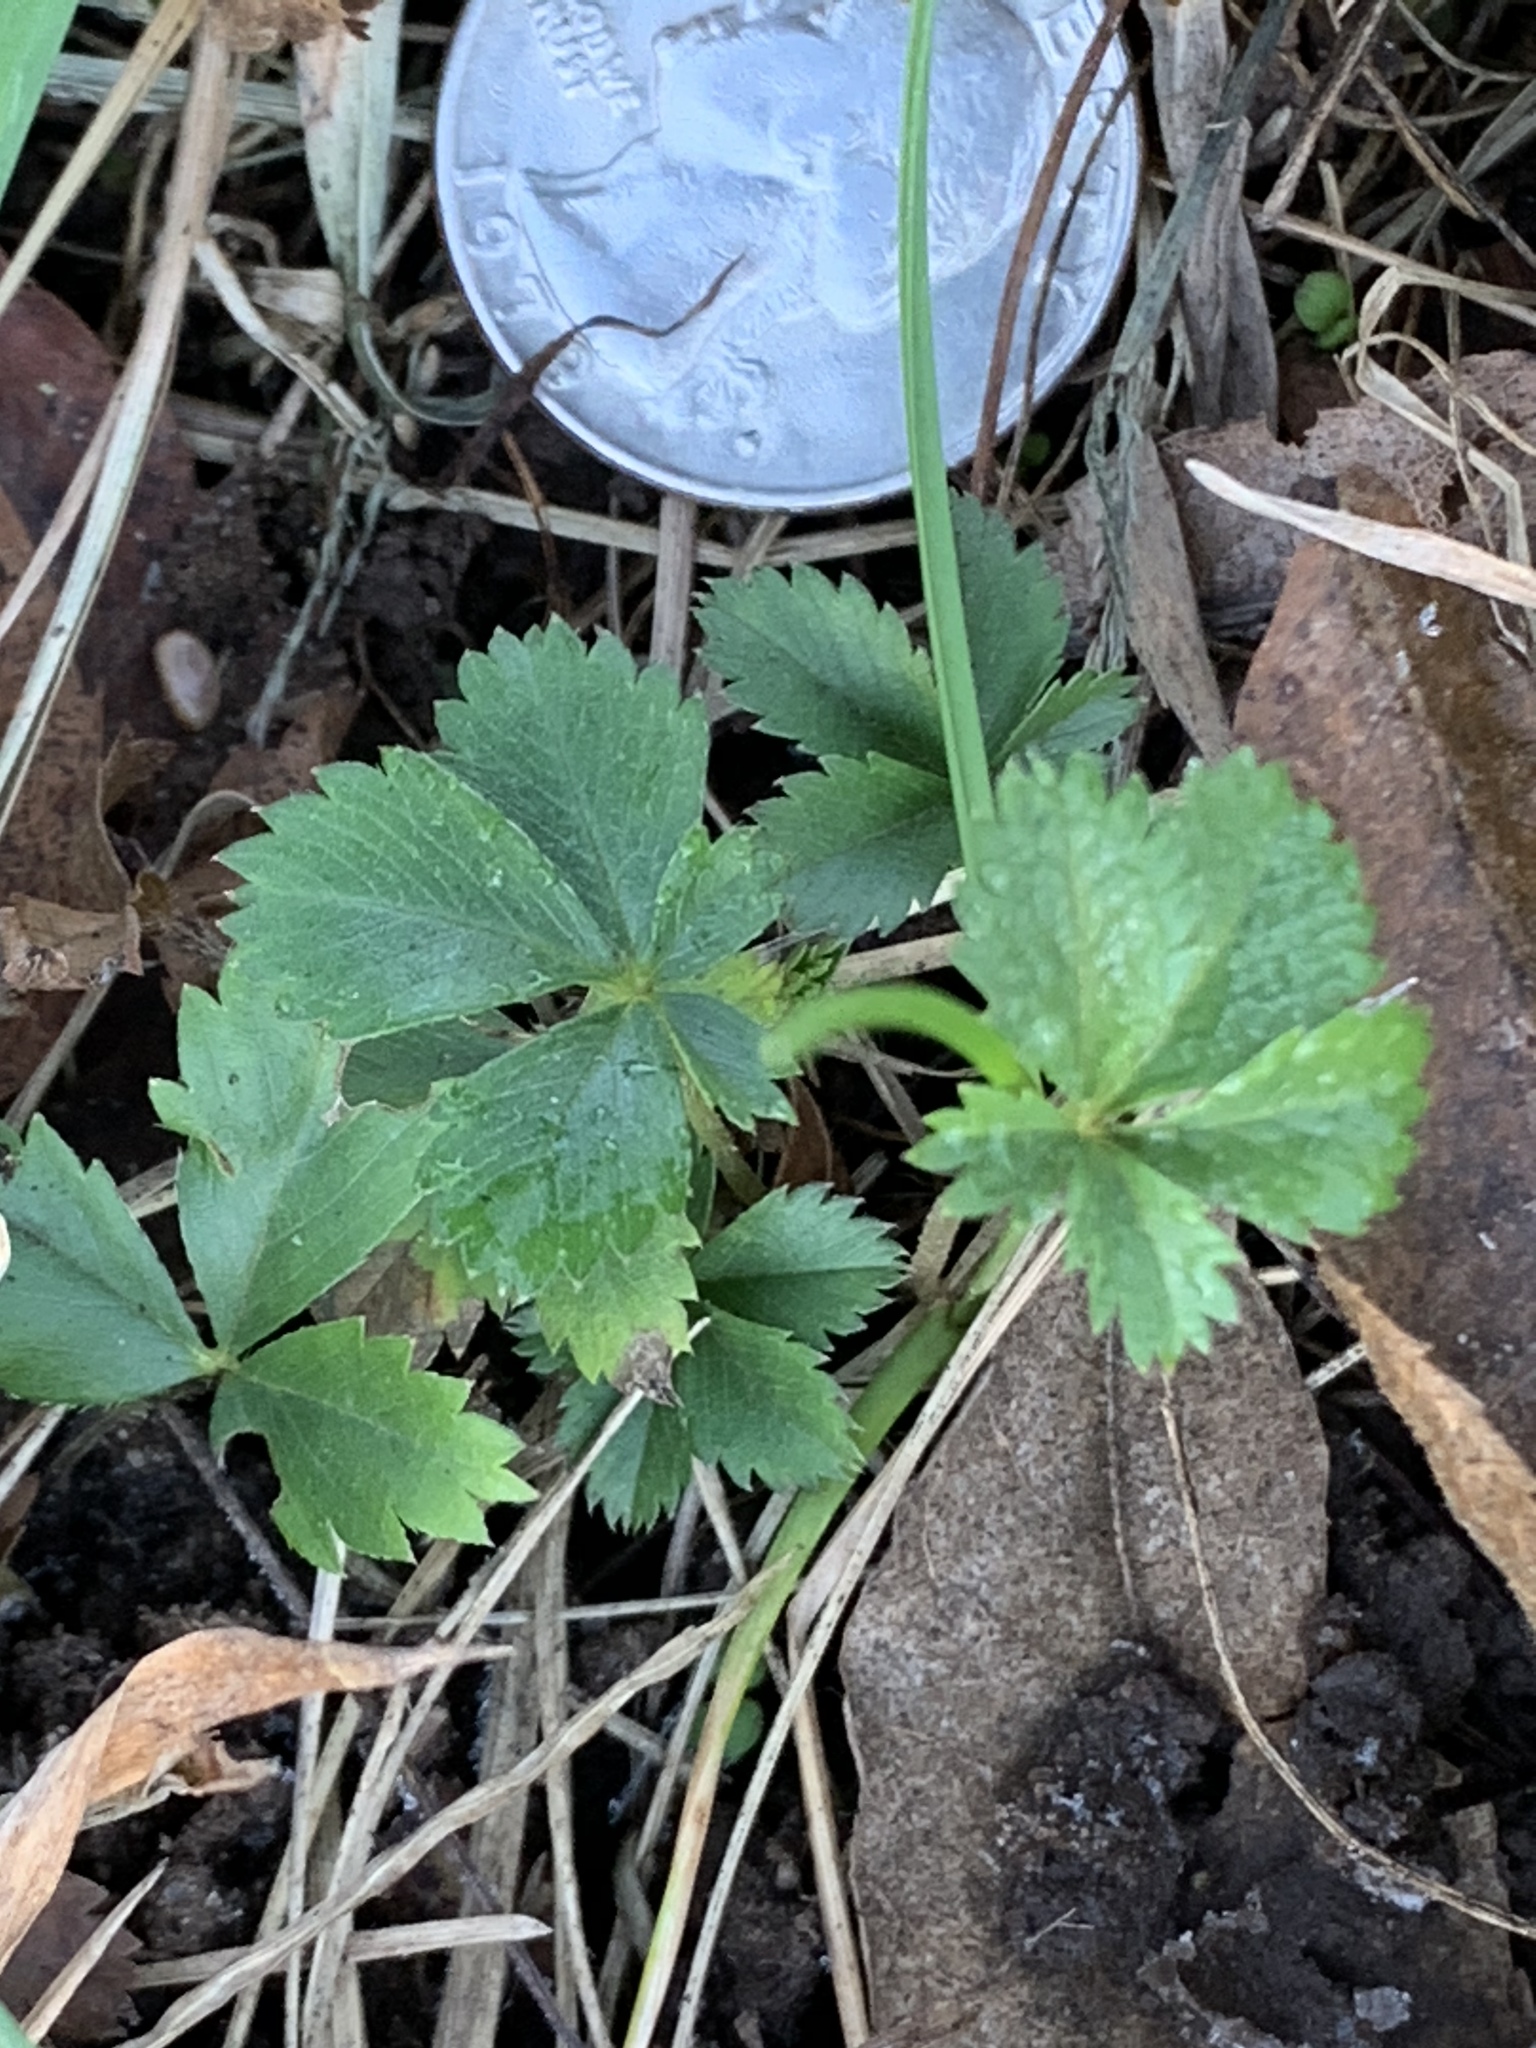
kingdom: Plantae
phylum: Tracheophyta
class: Magnoliopsida
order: Rosales
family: Rosaceae
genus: Potentilla
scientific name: Potentilla canadensis
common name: Canada cinquefoil
